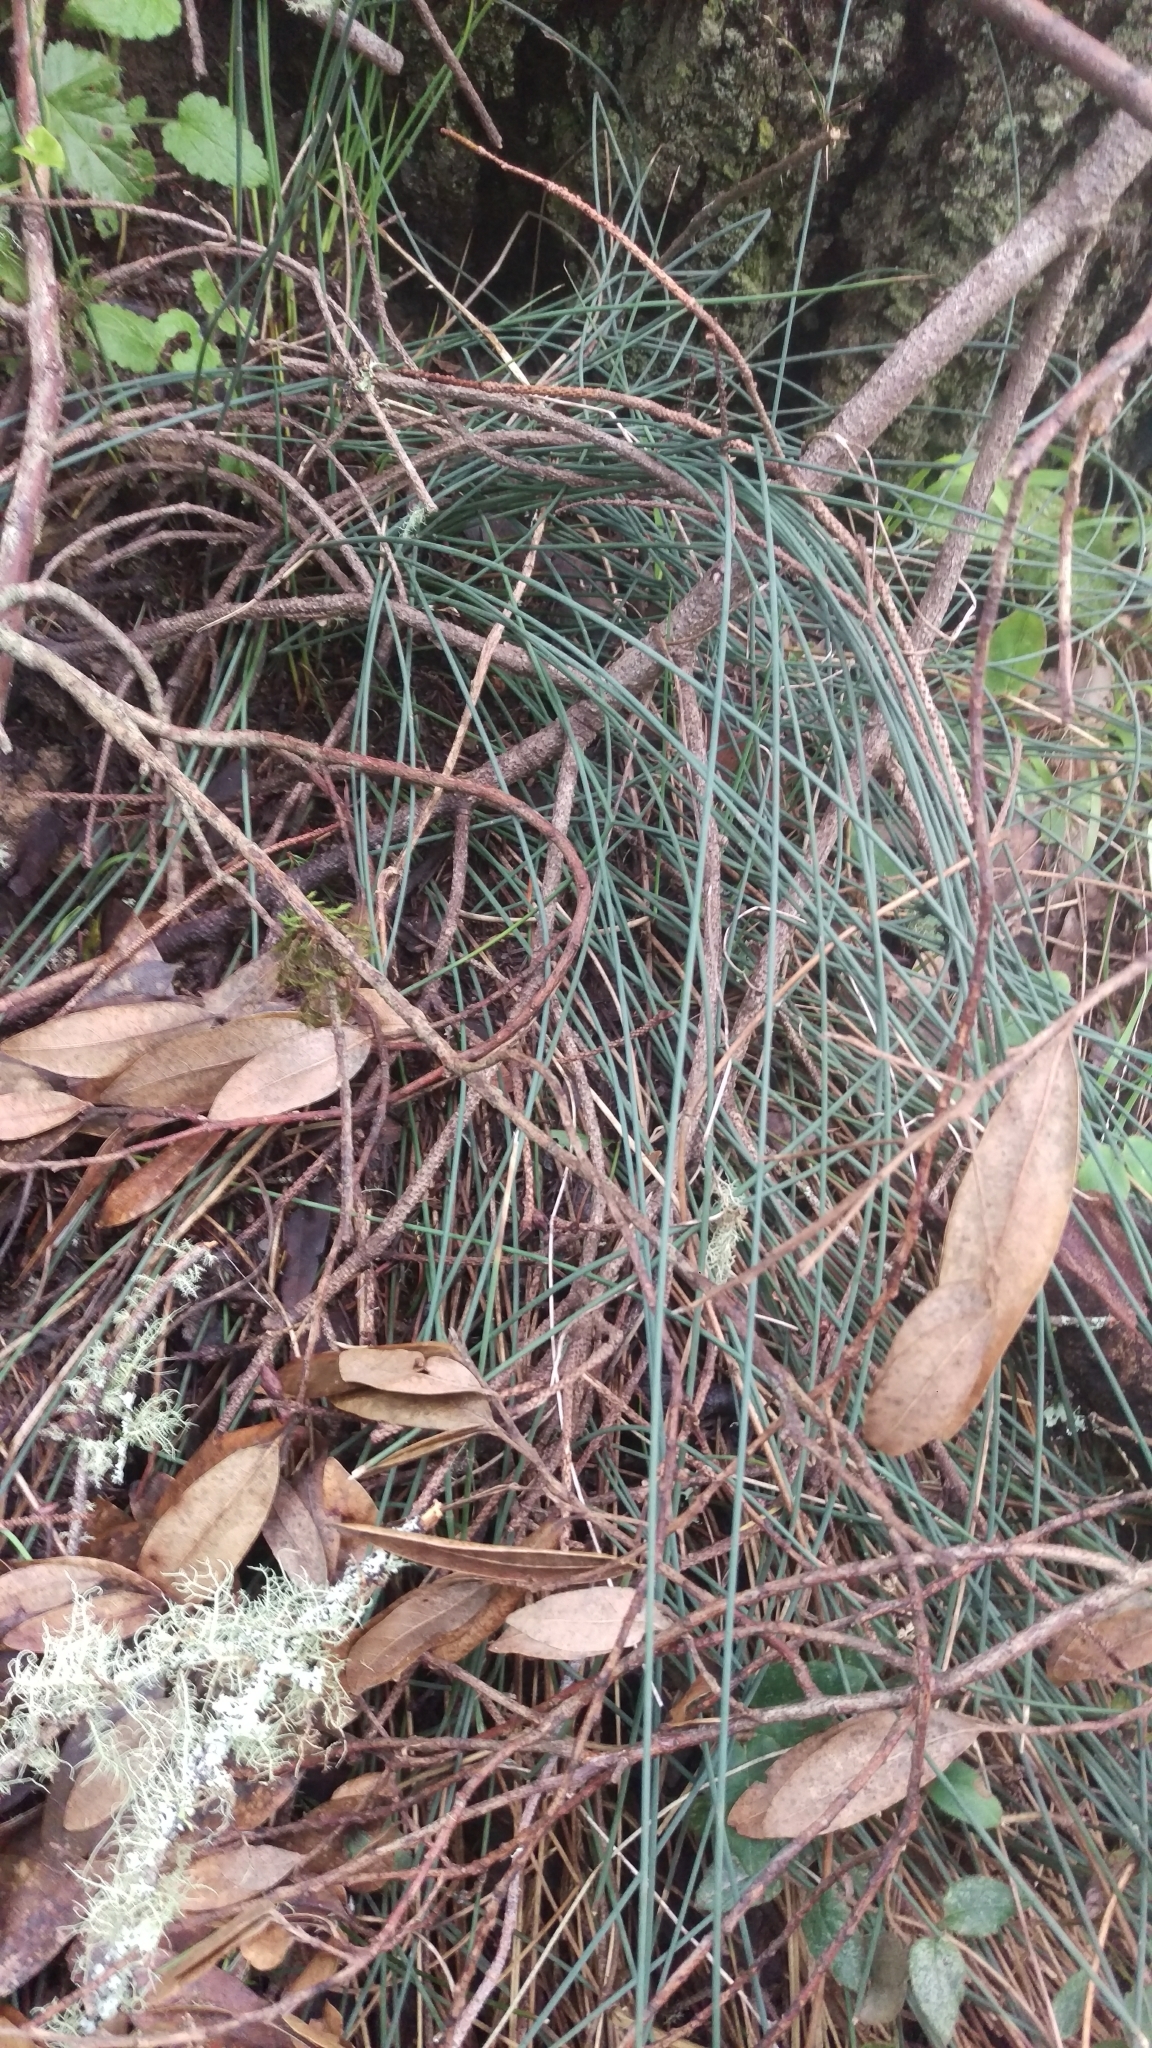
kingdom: Plantae
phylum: Tracheophyta
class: Liliopsida
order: Poales
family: Juncaceae
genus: Juncus
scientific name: Juncus patens
